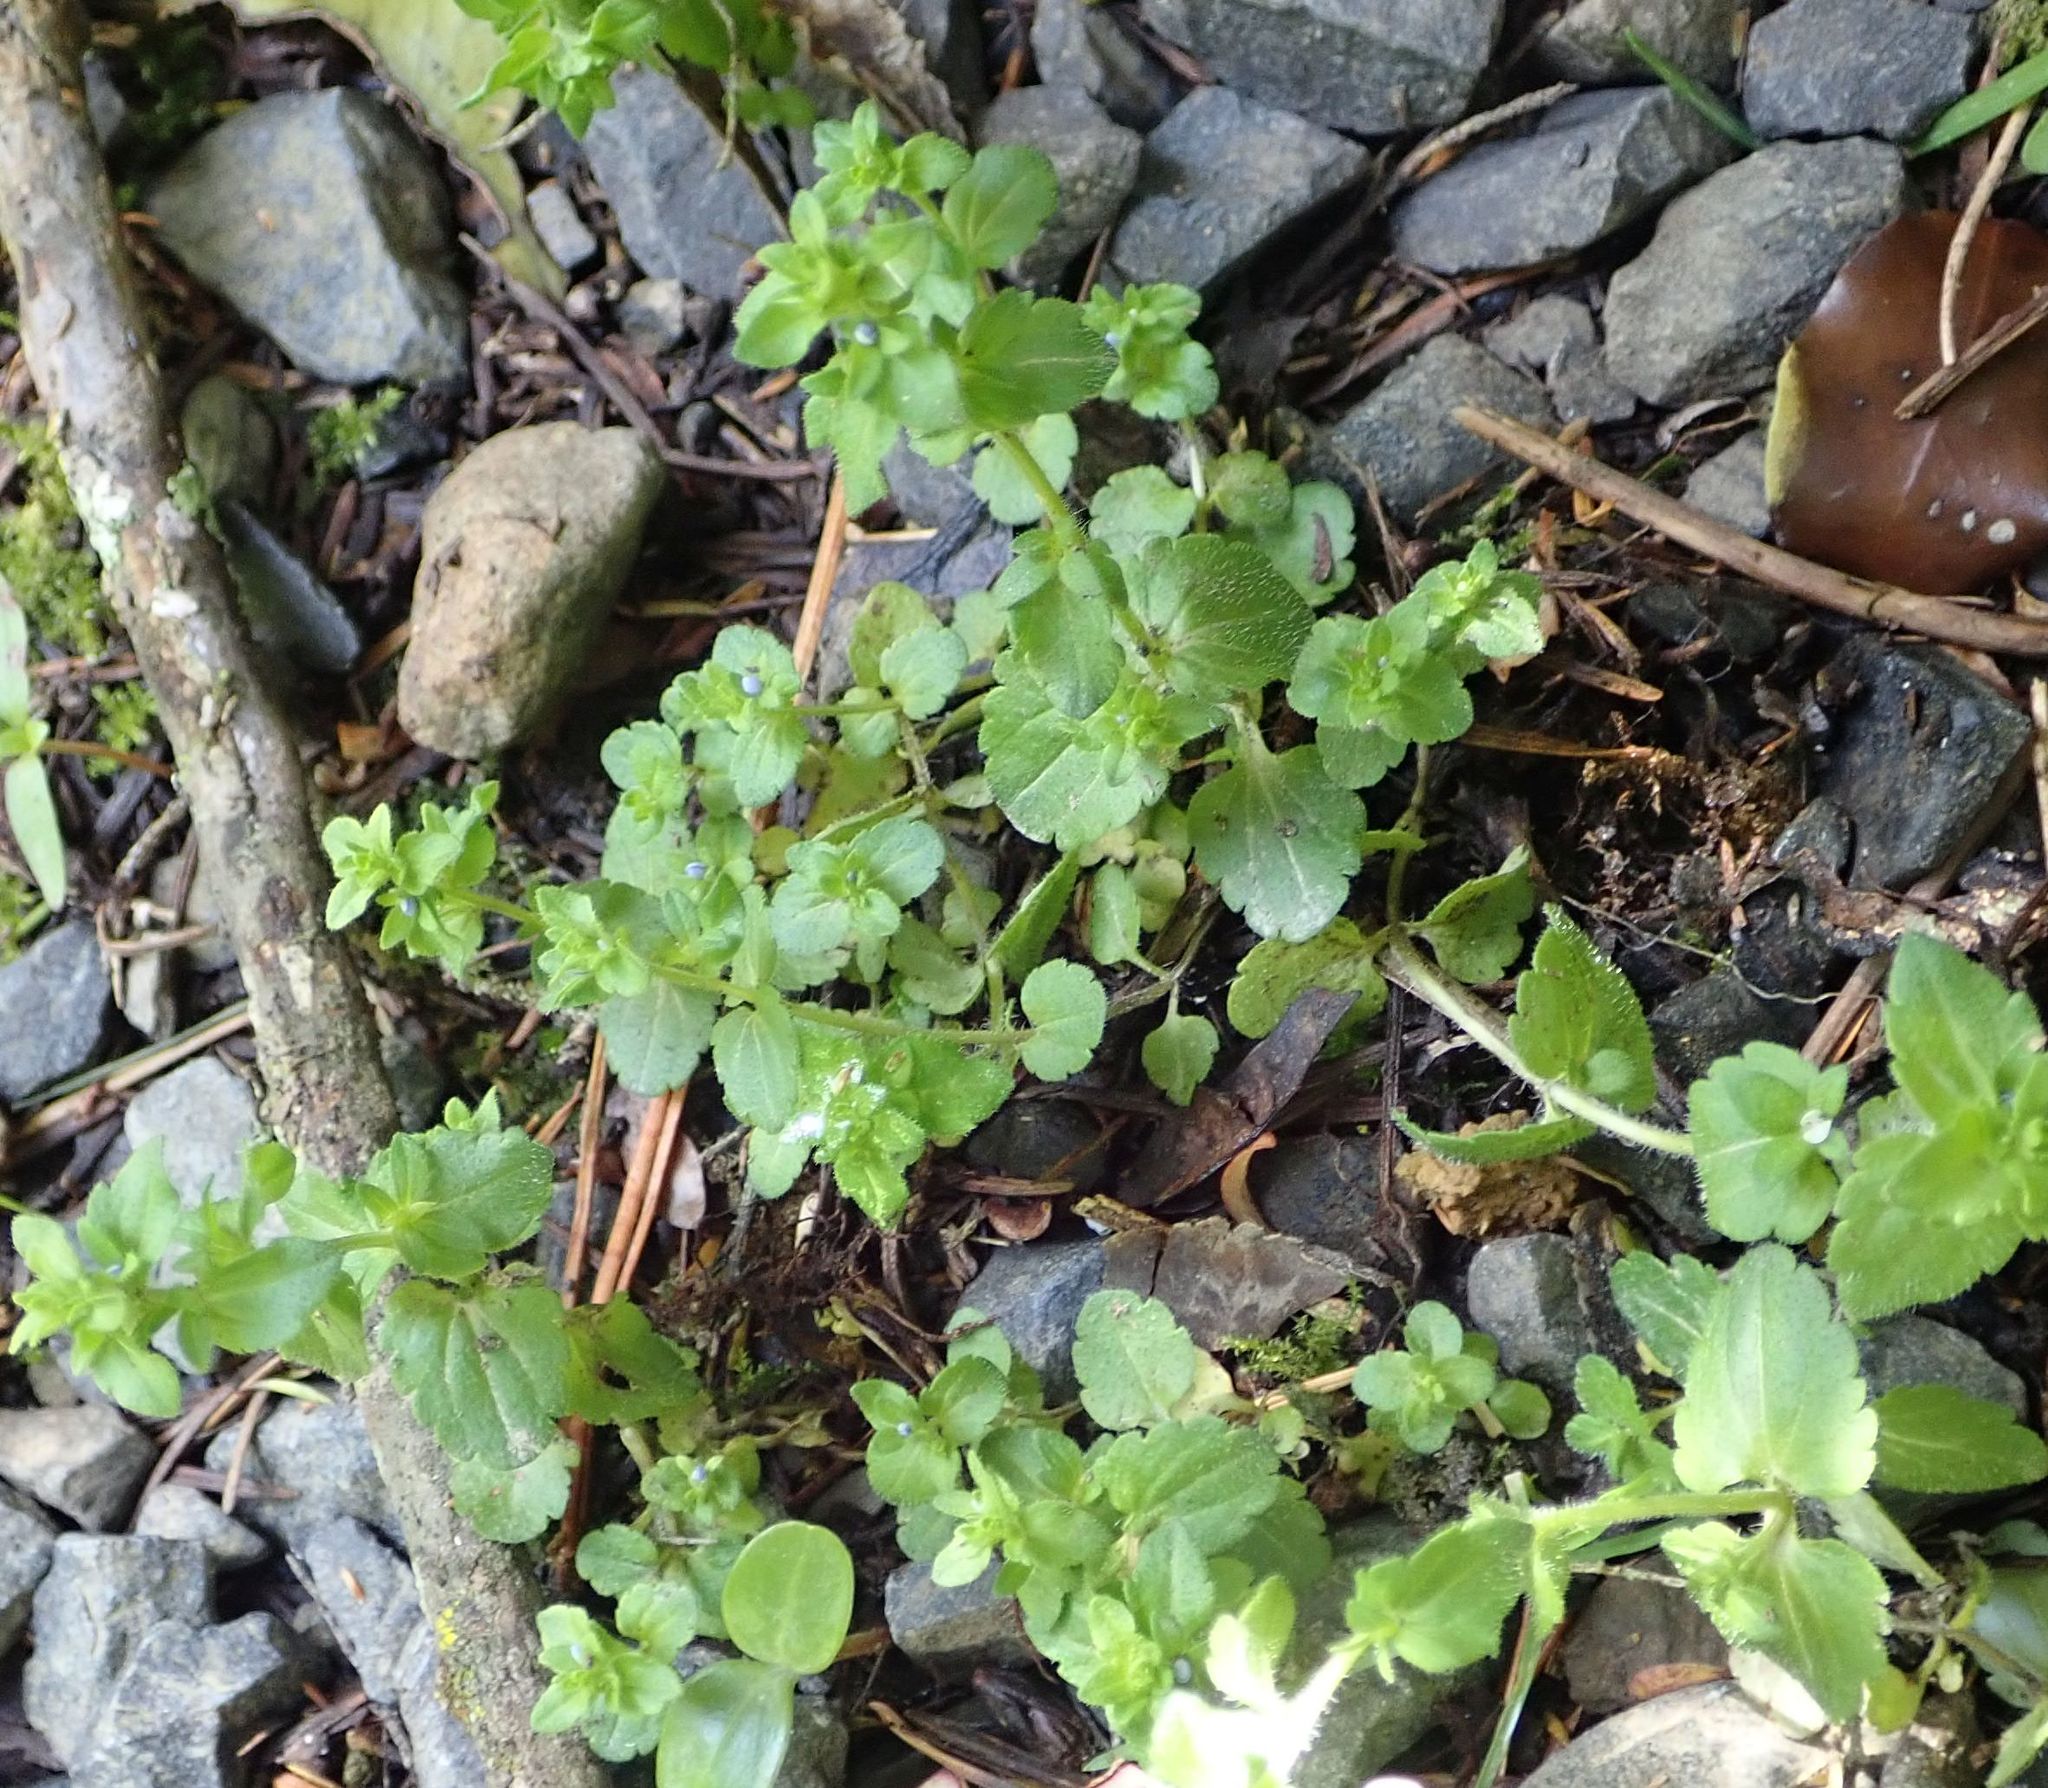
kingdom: Plantae
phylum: Tracheophyta
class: Magnoliopsida
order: Lamiales
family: Plantaginaceae
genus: Veronica
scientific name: Veronica persica
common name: Common field-speedwell
